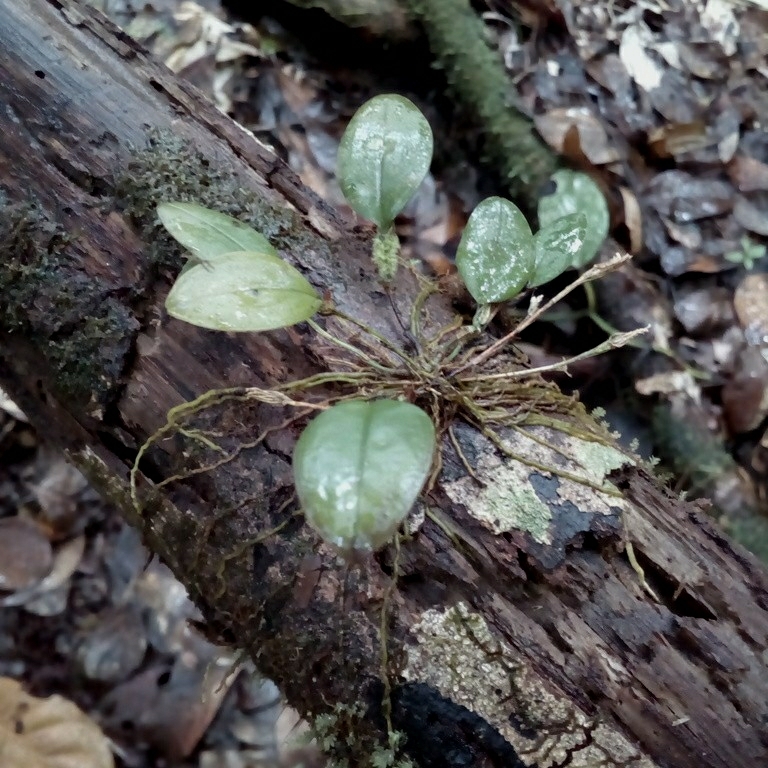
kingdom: Plantae
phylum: Tracheophyta
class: Liliopsida
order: Asparagales
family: Orchidaceae
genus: Trichosalpinx
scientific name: Trichosalpinx orbicularis
